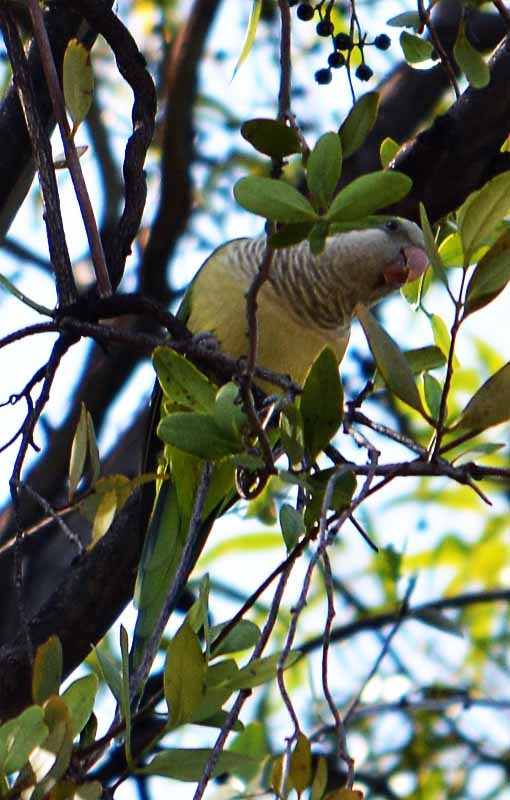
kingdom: Animalia
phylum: Chordata
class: Aves
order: Psittaciformes
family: Psittacidae
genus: Myiopsitta
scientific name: Myiopsitta monachus
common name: Monk parakeet
